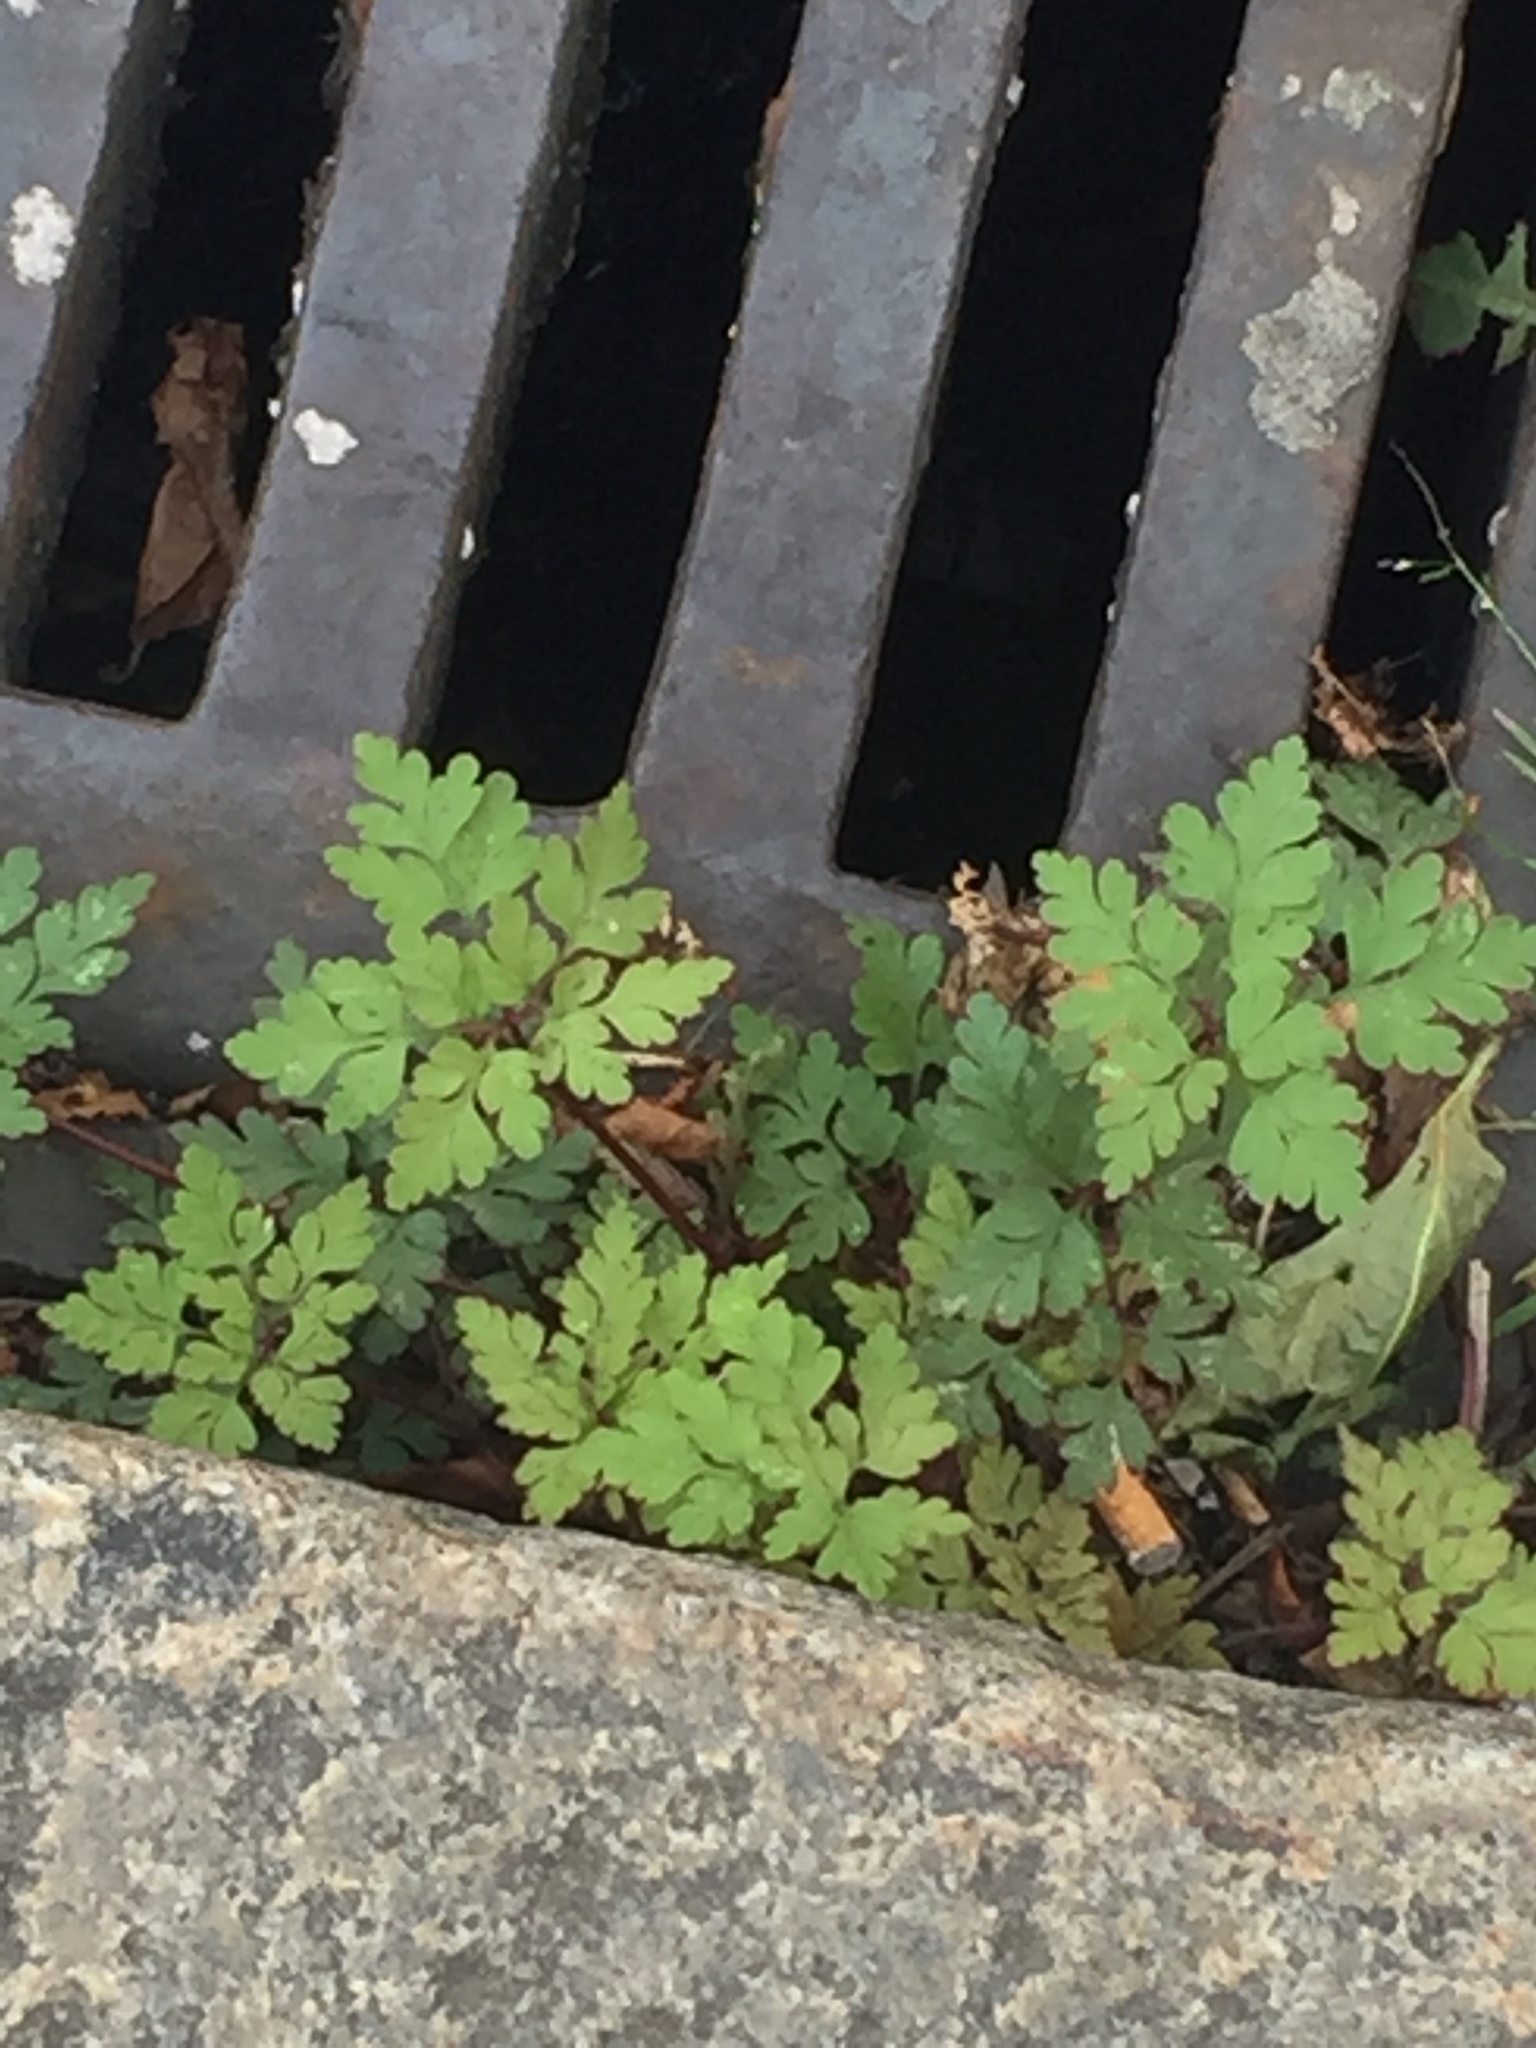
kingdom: Plantae
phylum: Tracheophyta
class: Magnoliopsida
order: Geraniales
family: Geraniaceae
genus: Geranium
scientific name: Geranium robertianum
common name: Herb-robert
